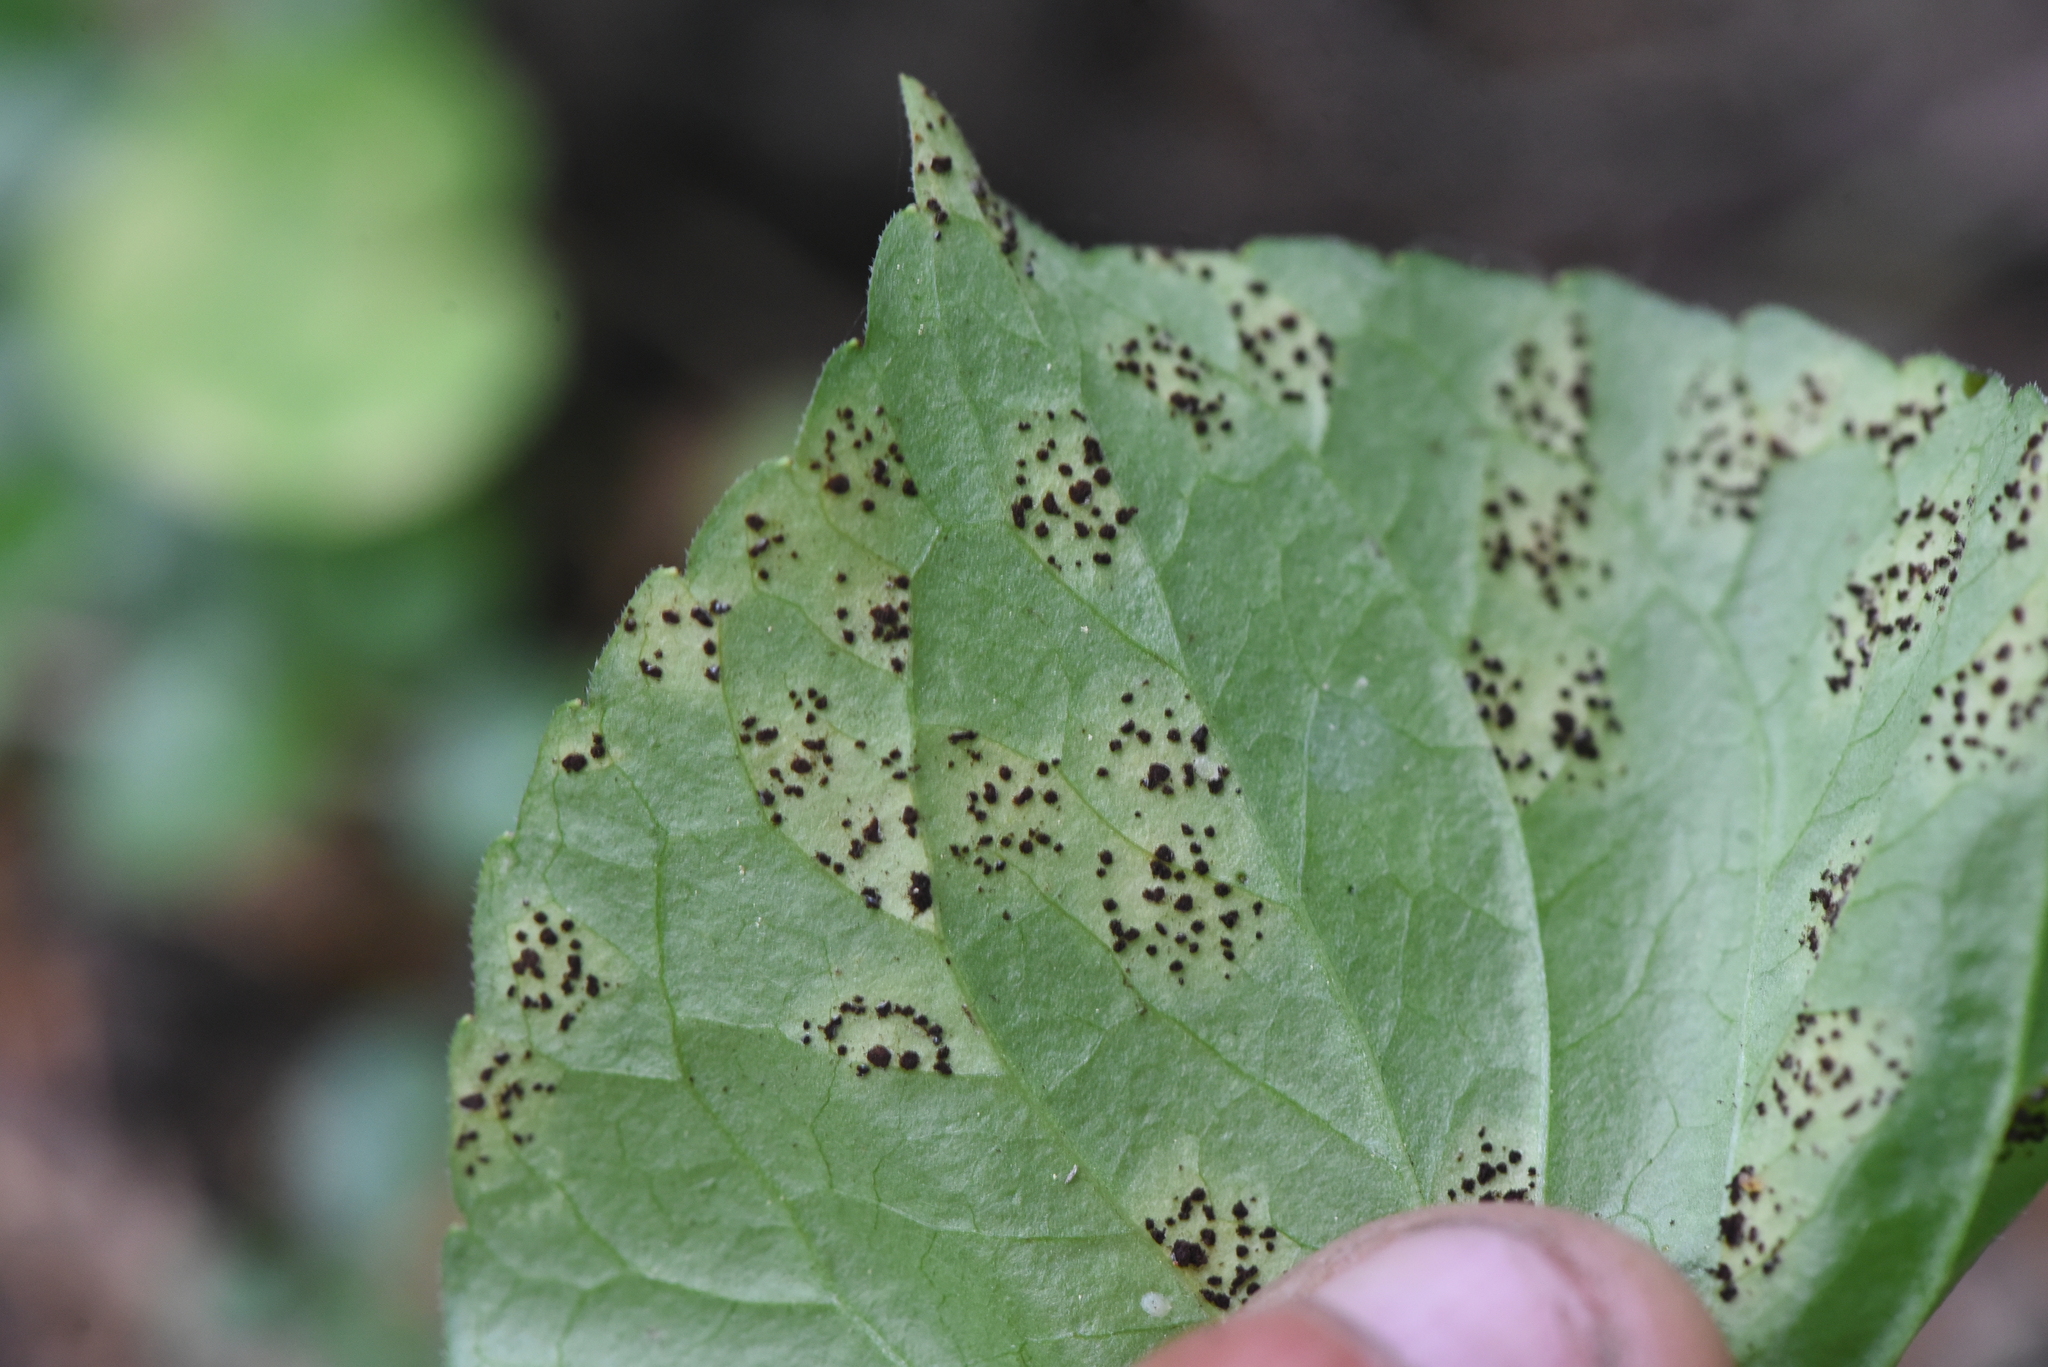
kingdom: Fungi
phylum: Basidiomycota
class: Pucciniomycetes
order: Pucciniales
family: Pucciniaceae
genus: Puccinia
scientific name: Puccinia violae
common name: Violet rust
